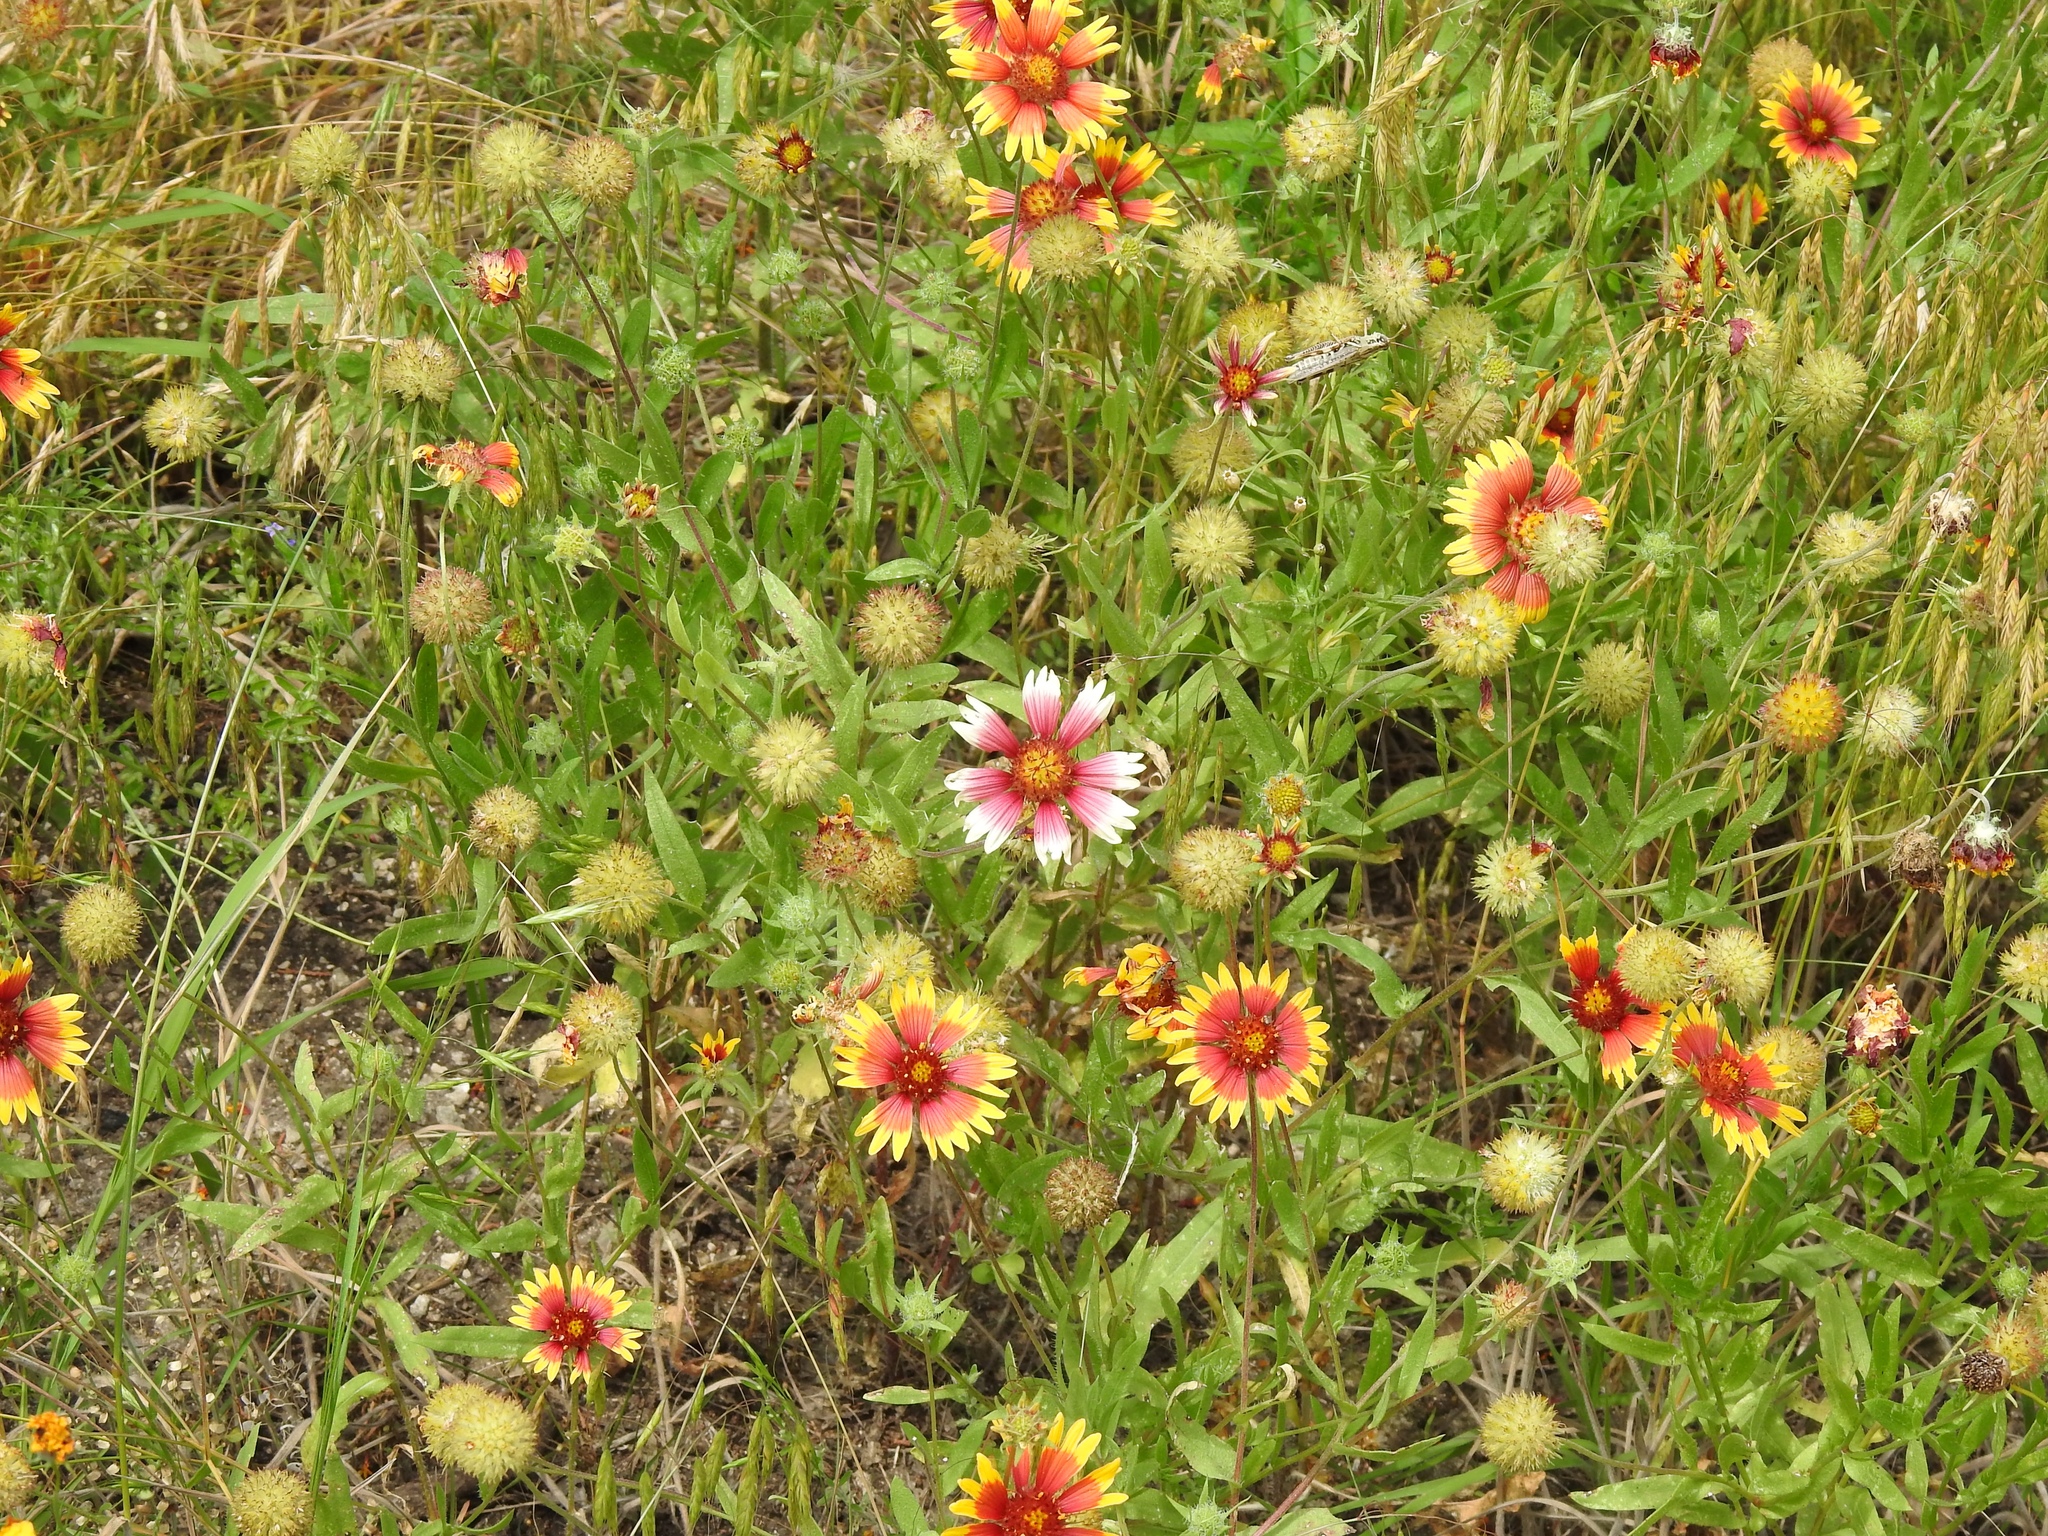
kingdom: Plantae
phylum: Tracheophyta
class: Magnoliopsida
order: Asterales
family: Asteraceae
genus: Gaillardia
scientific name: Gaillardia pulchella
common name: Firewheel
